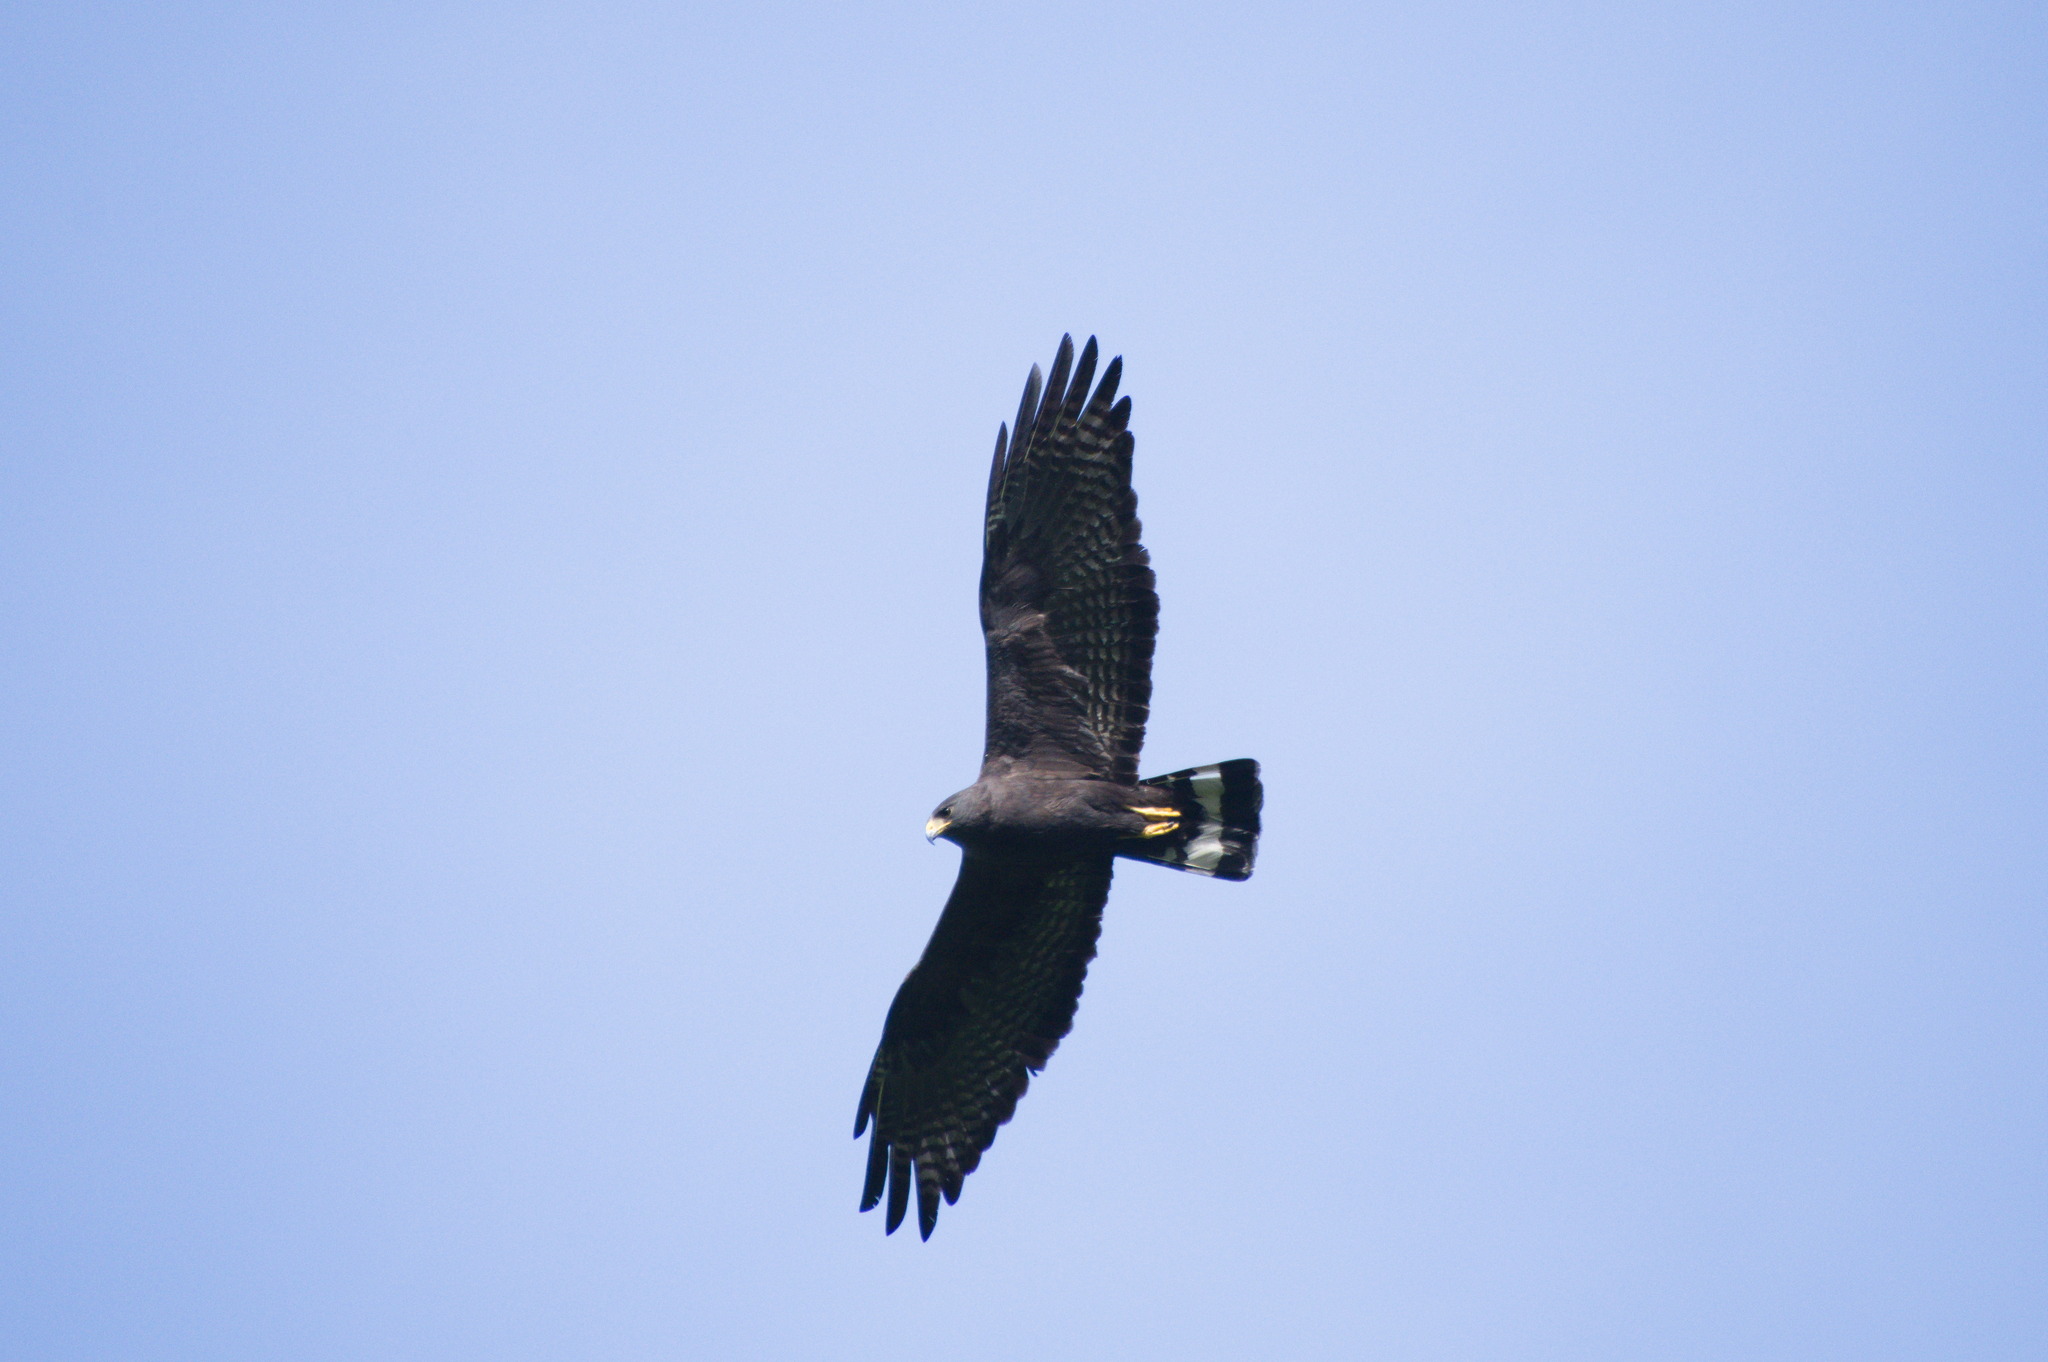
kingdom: Animalia
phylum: Chordata
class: Aves
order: Accipitriformes
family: Accipitridae
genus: Buteo
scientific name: Buteo albonotatus
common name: Zone-tailed hawk
